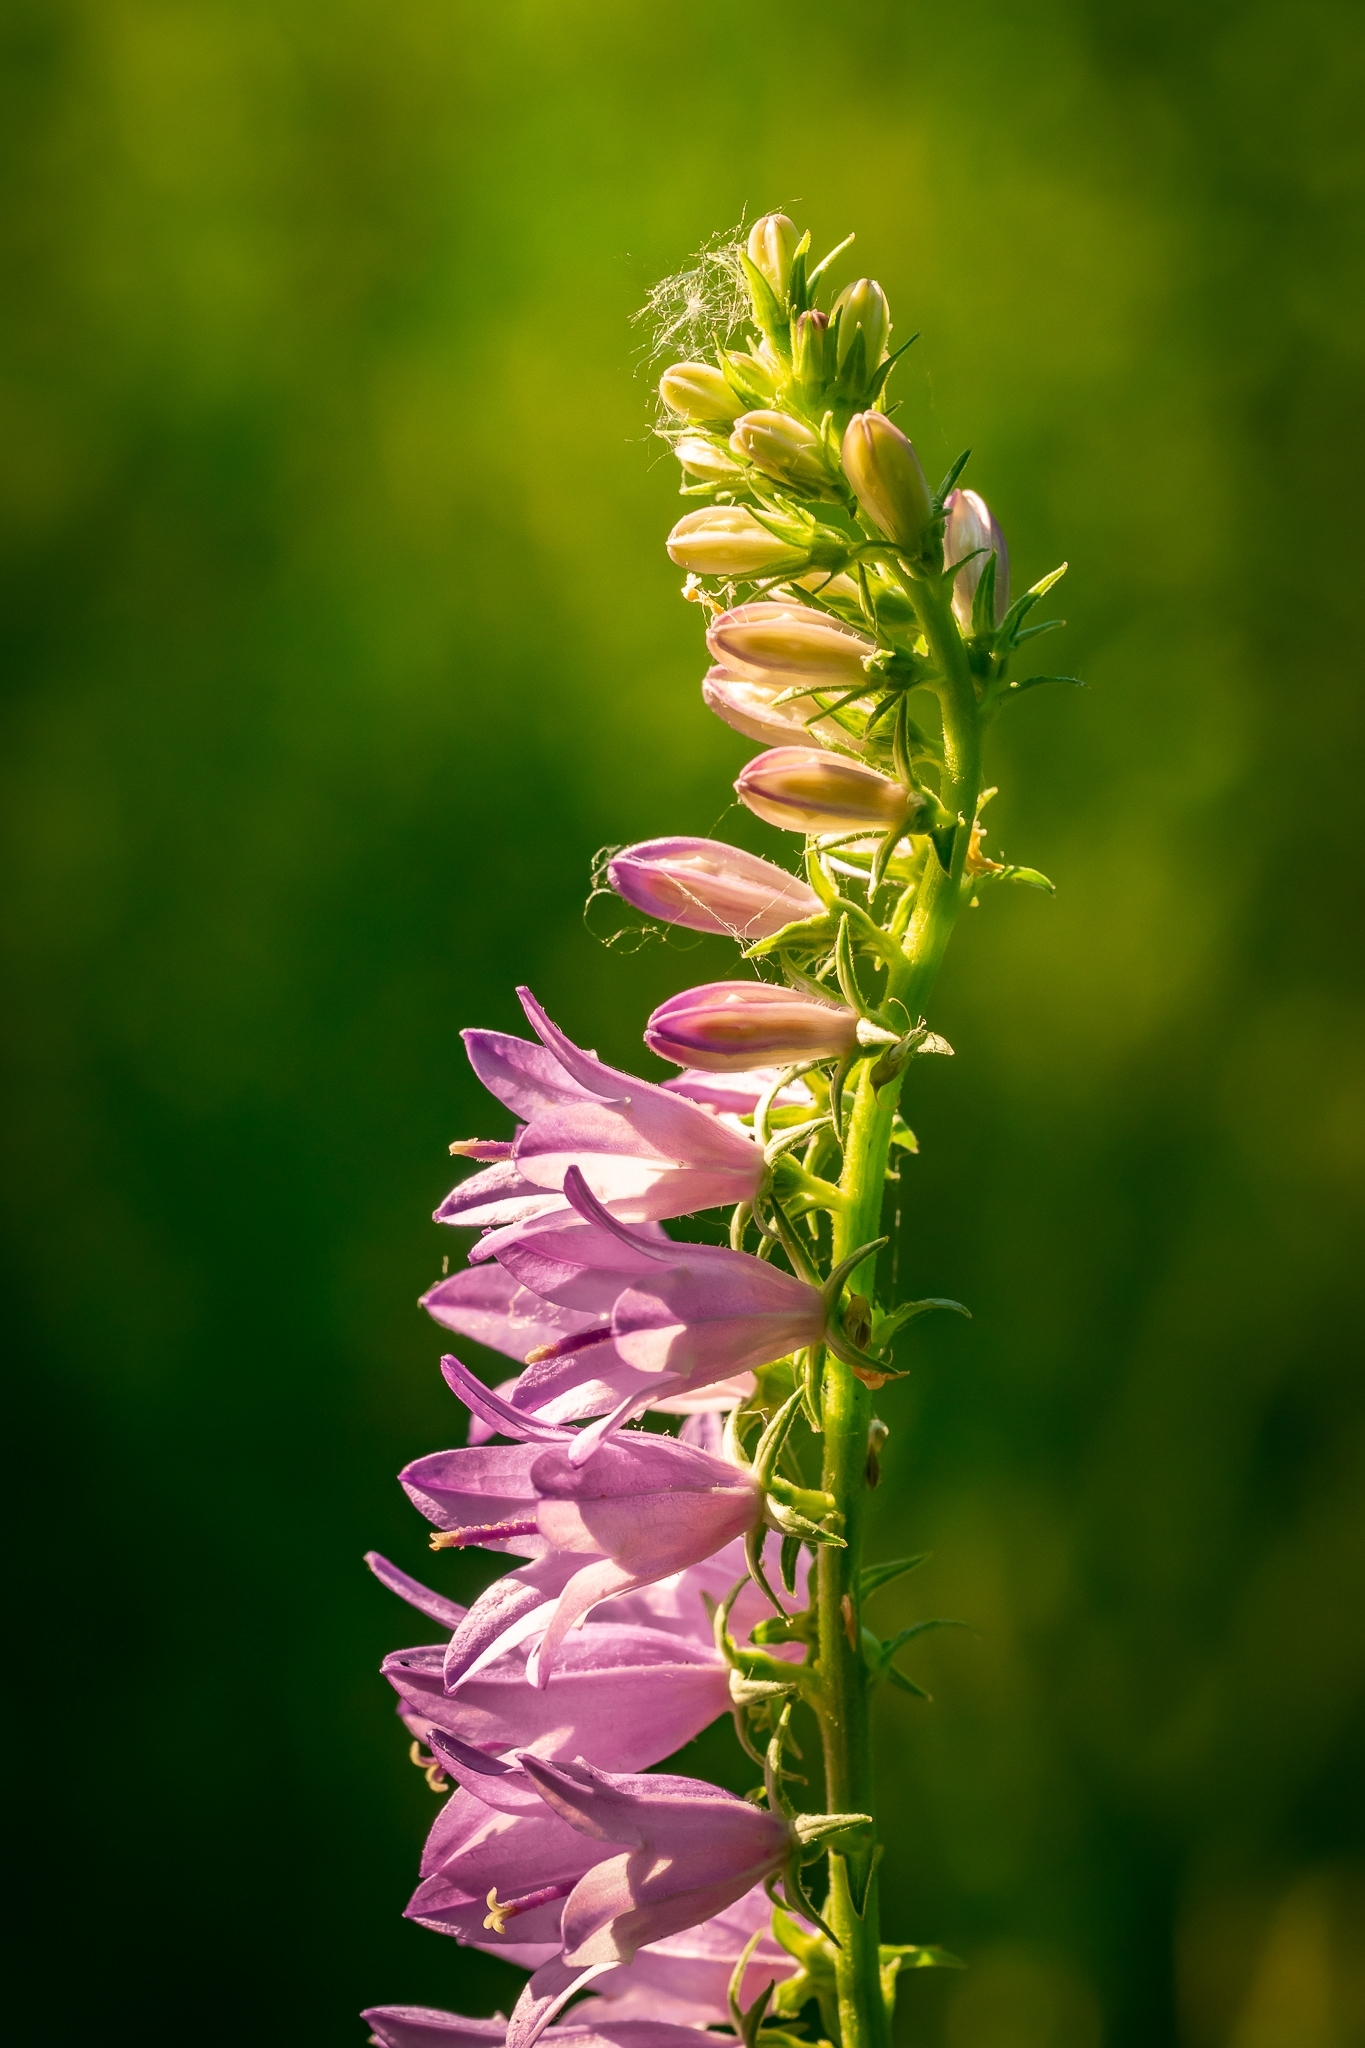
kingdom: Plantae
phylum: Tracheophyta
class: Magnoliopsida
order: Asterales
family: Campanulaceae
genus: Campanula
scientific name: Campanula rapunculoides
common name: Creeping bellflower
